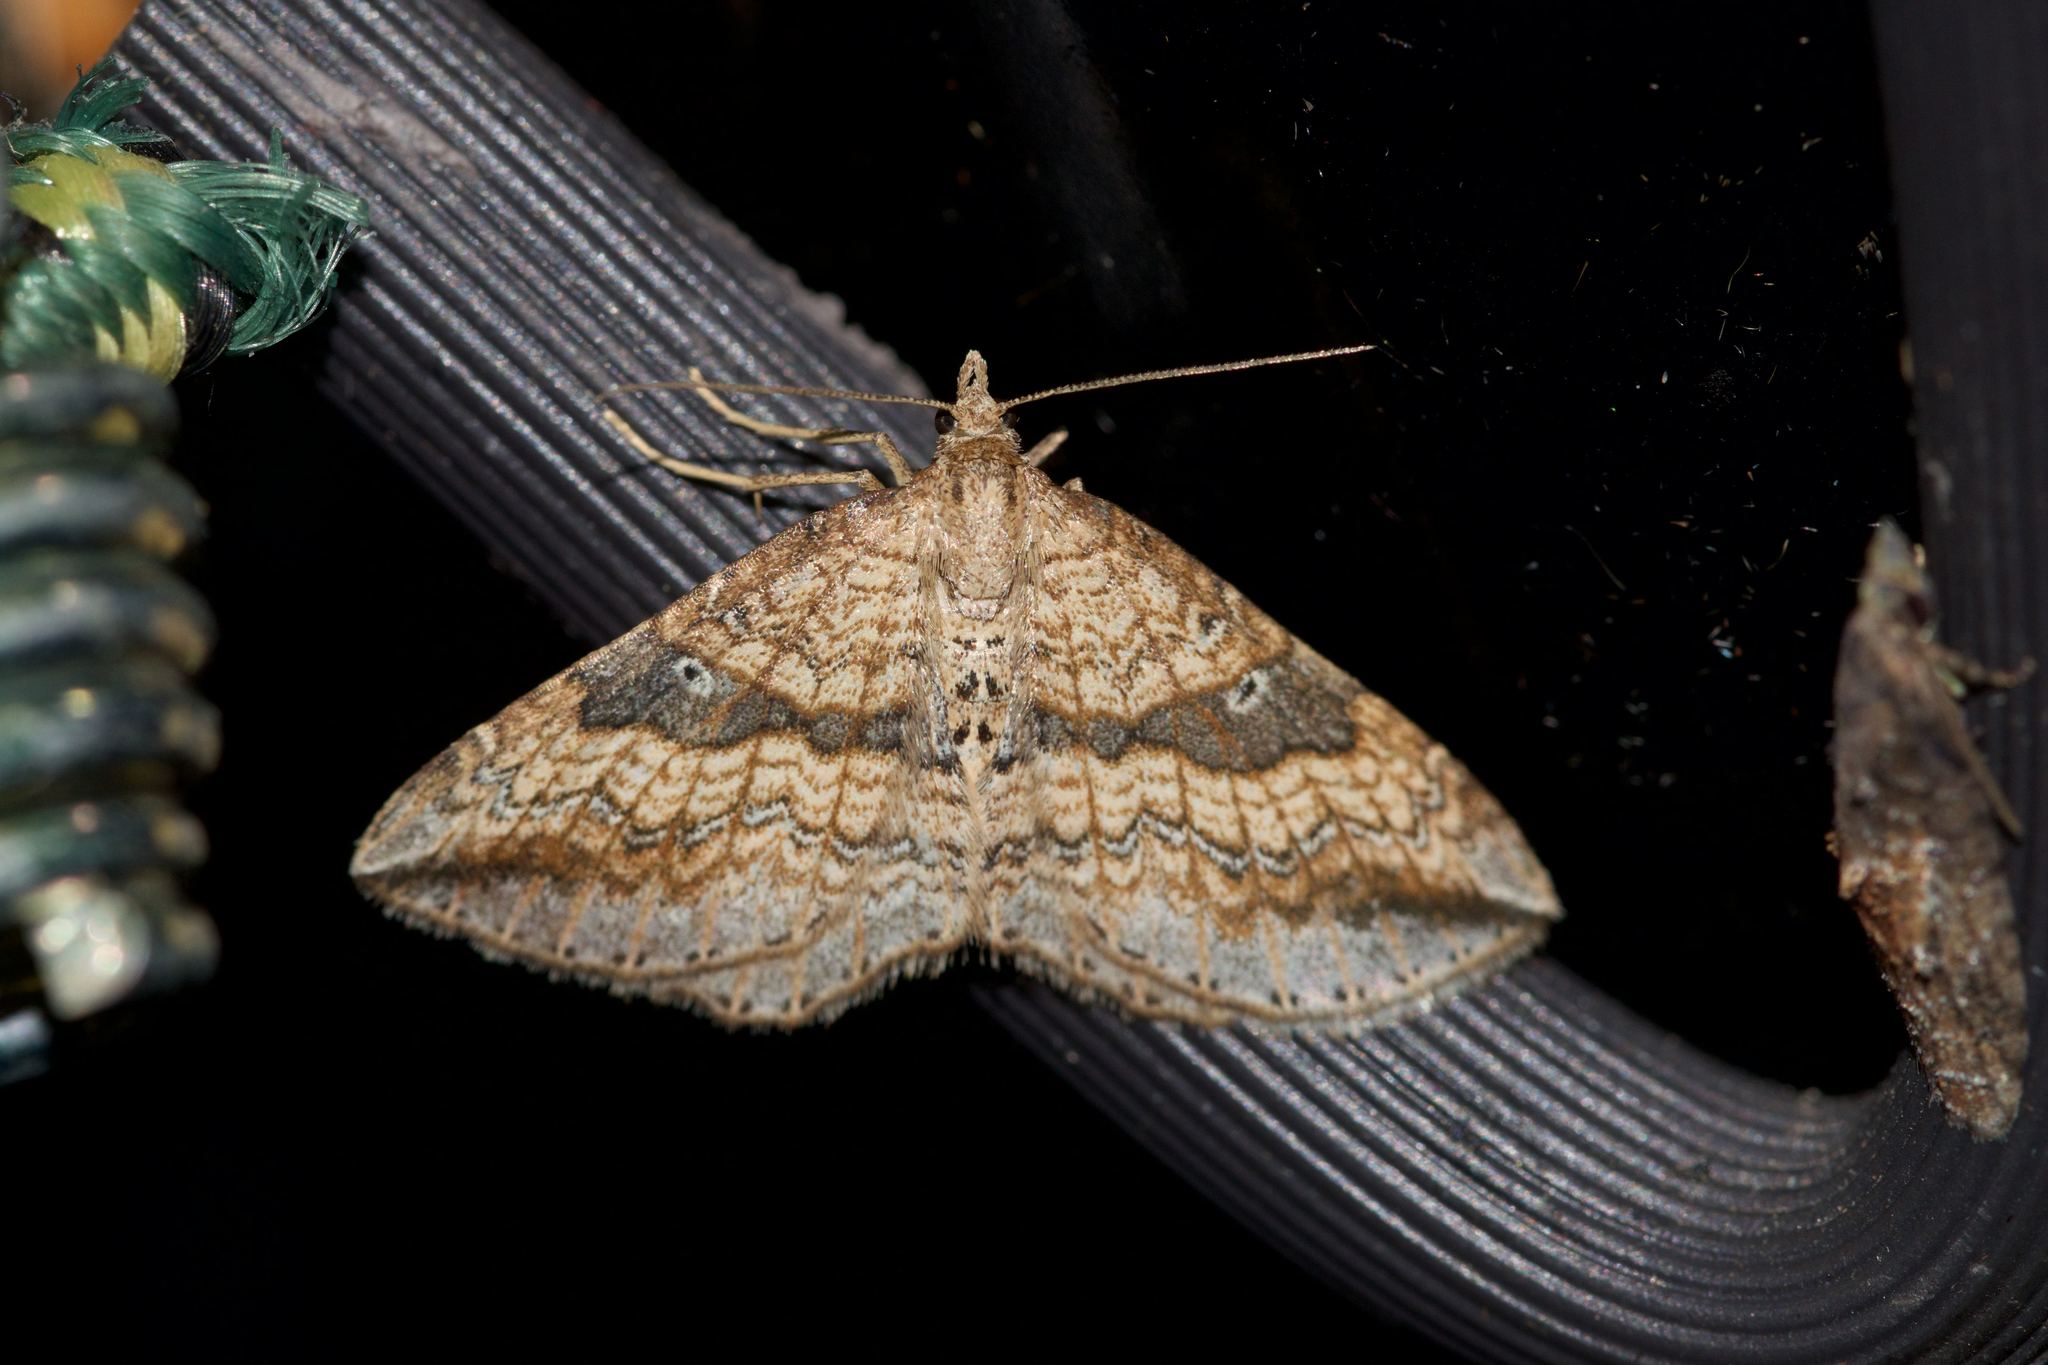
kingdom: Animalia
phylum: Arthropoda
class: Insecta
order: Lepidoptera
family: Geometridae
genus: Orthonama
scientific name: Orthonama evansi
